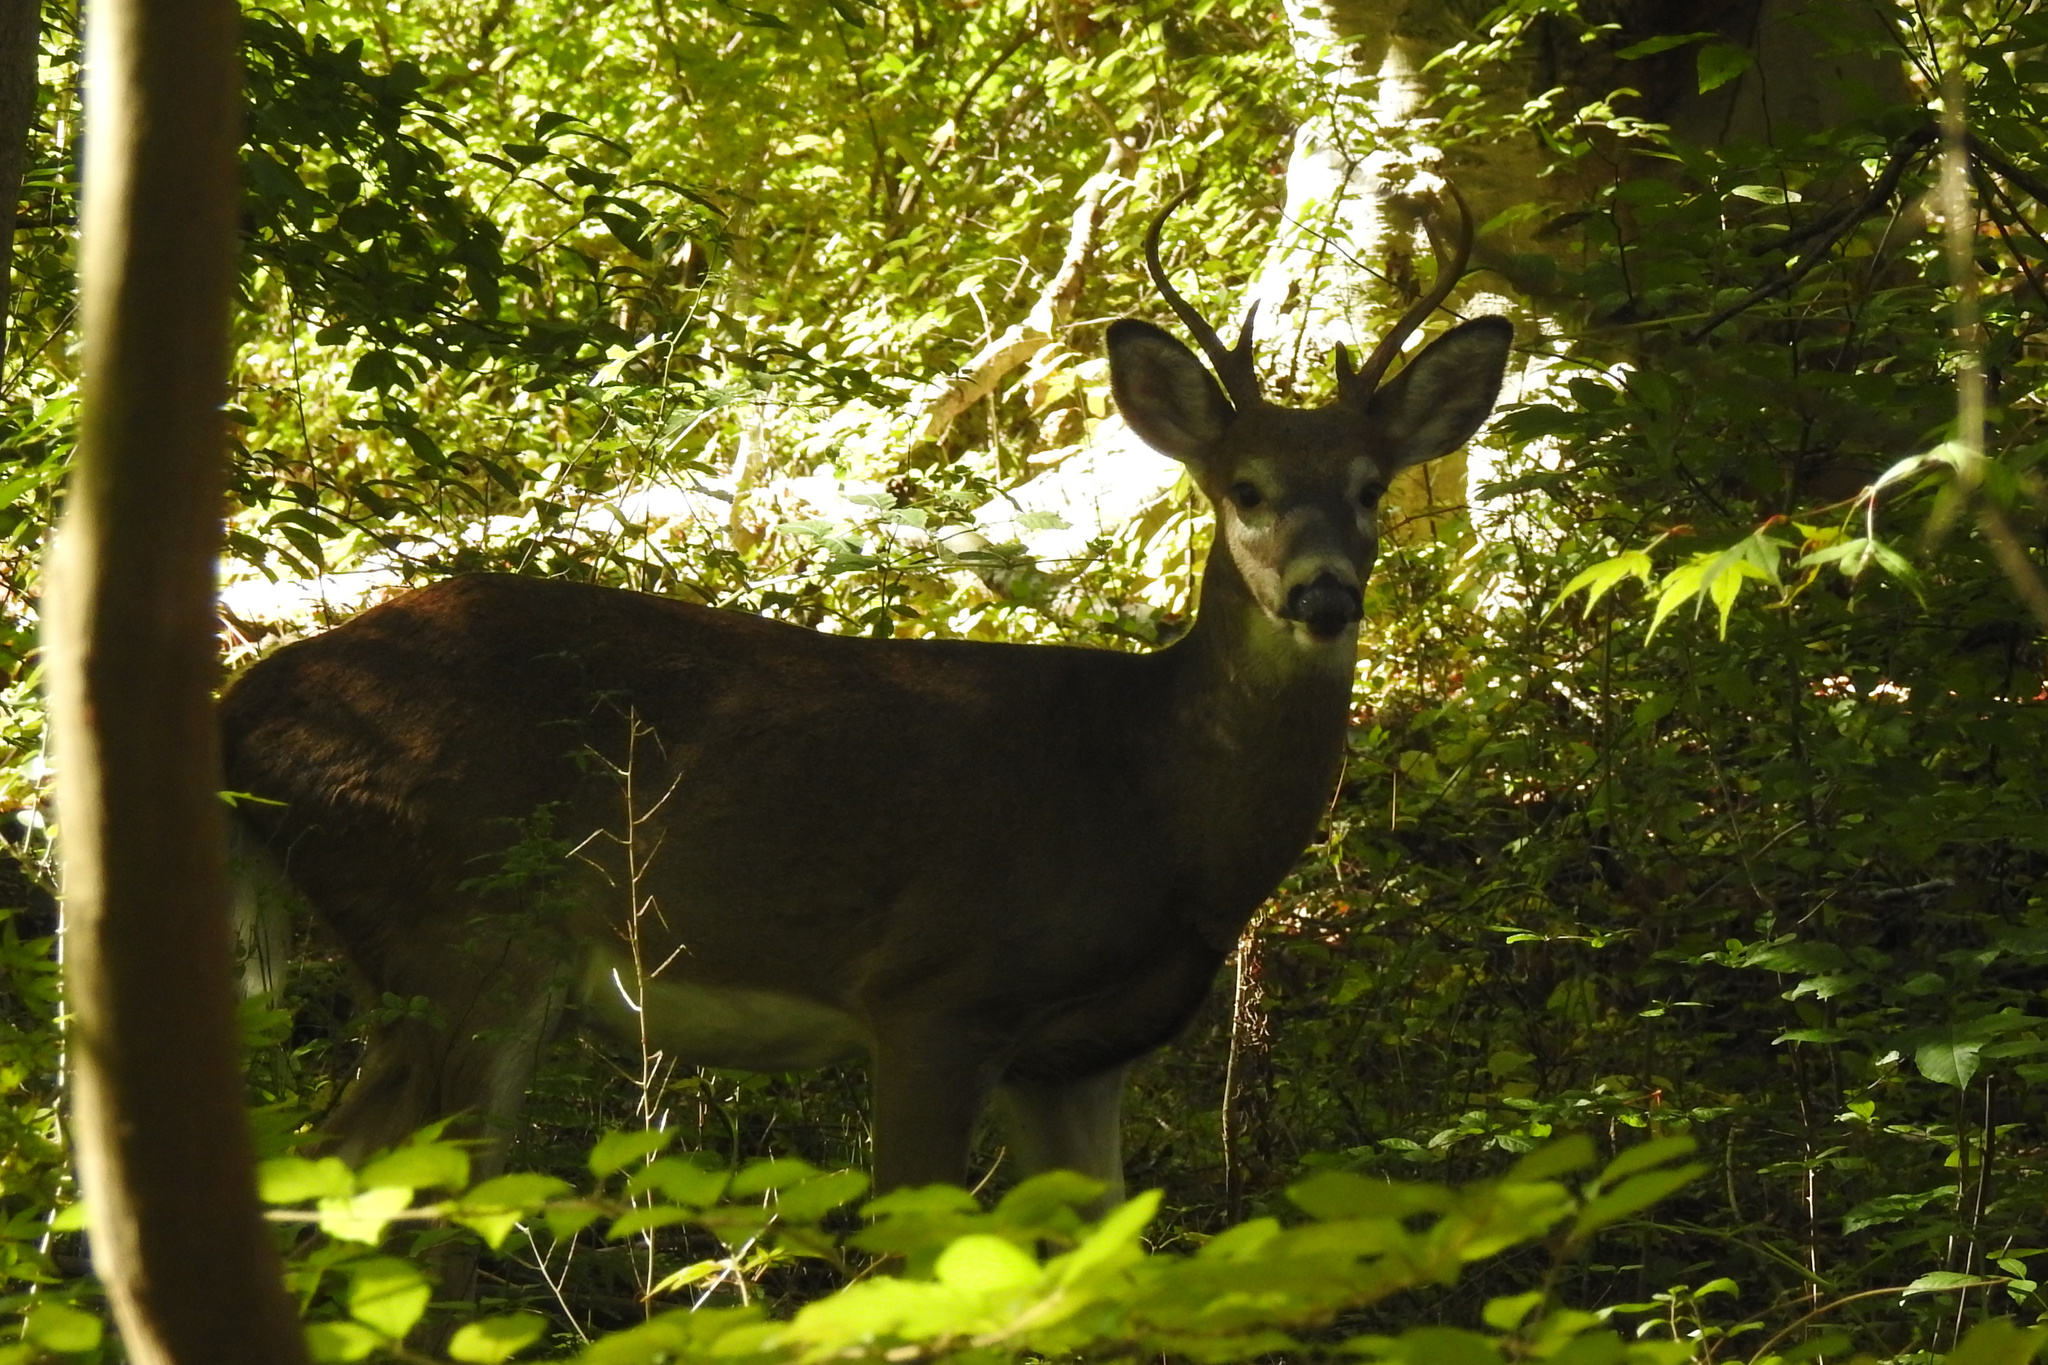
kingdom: Animalia
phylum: Chordata
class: Mammalia
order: Artiodactyla
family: Cervidae
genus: Odocoileus
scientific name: Odocoileus virginianus
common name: White-tailed deer
